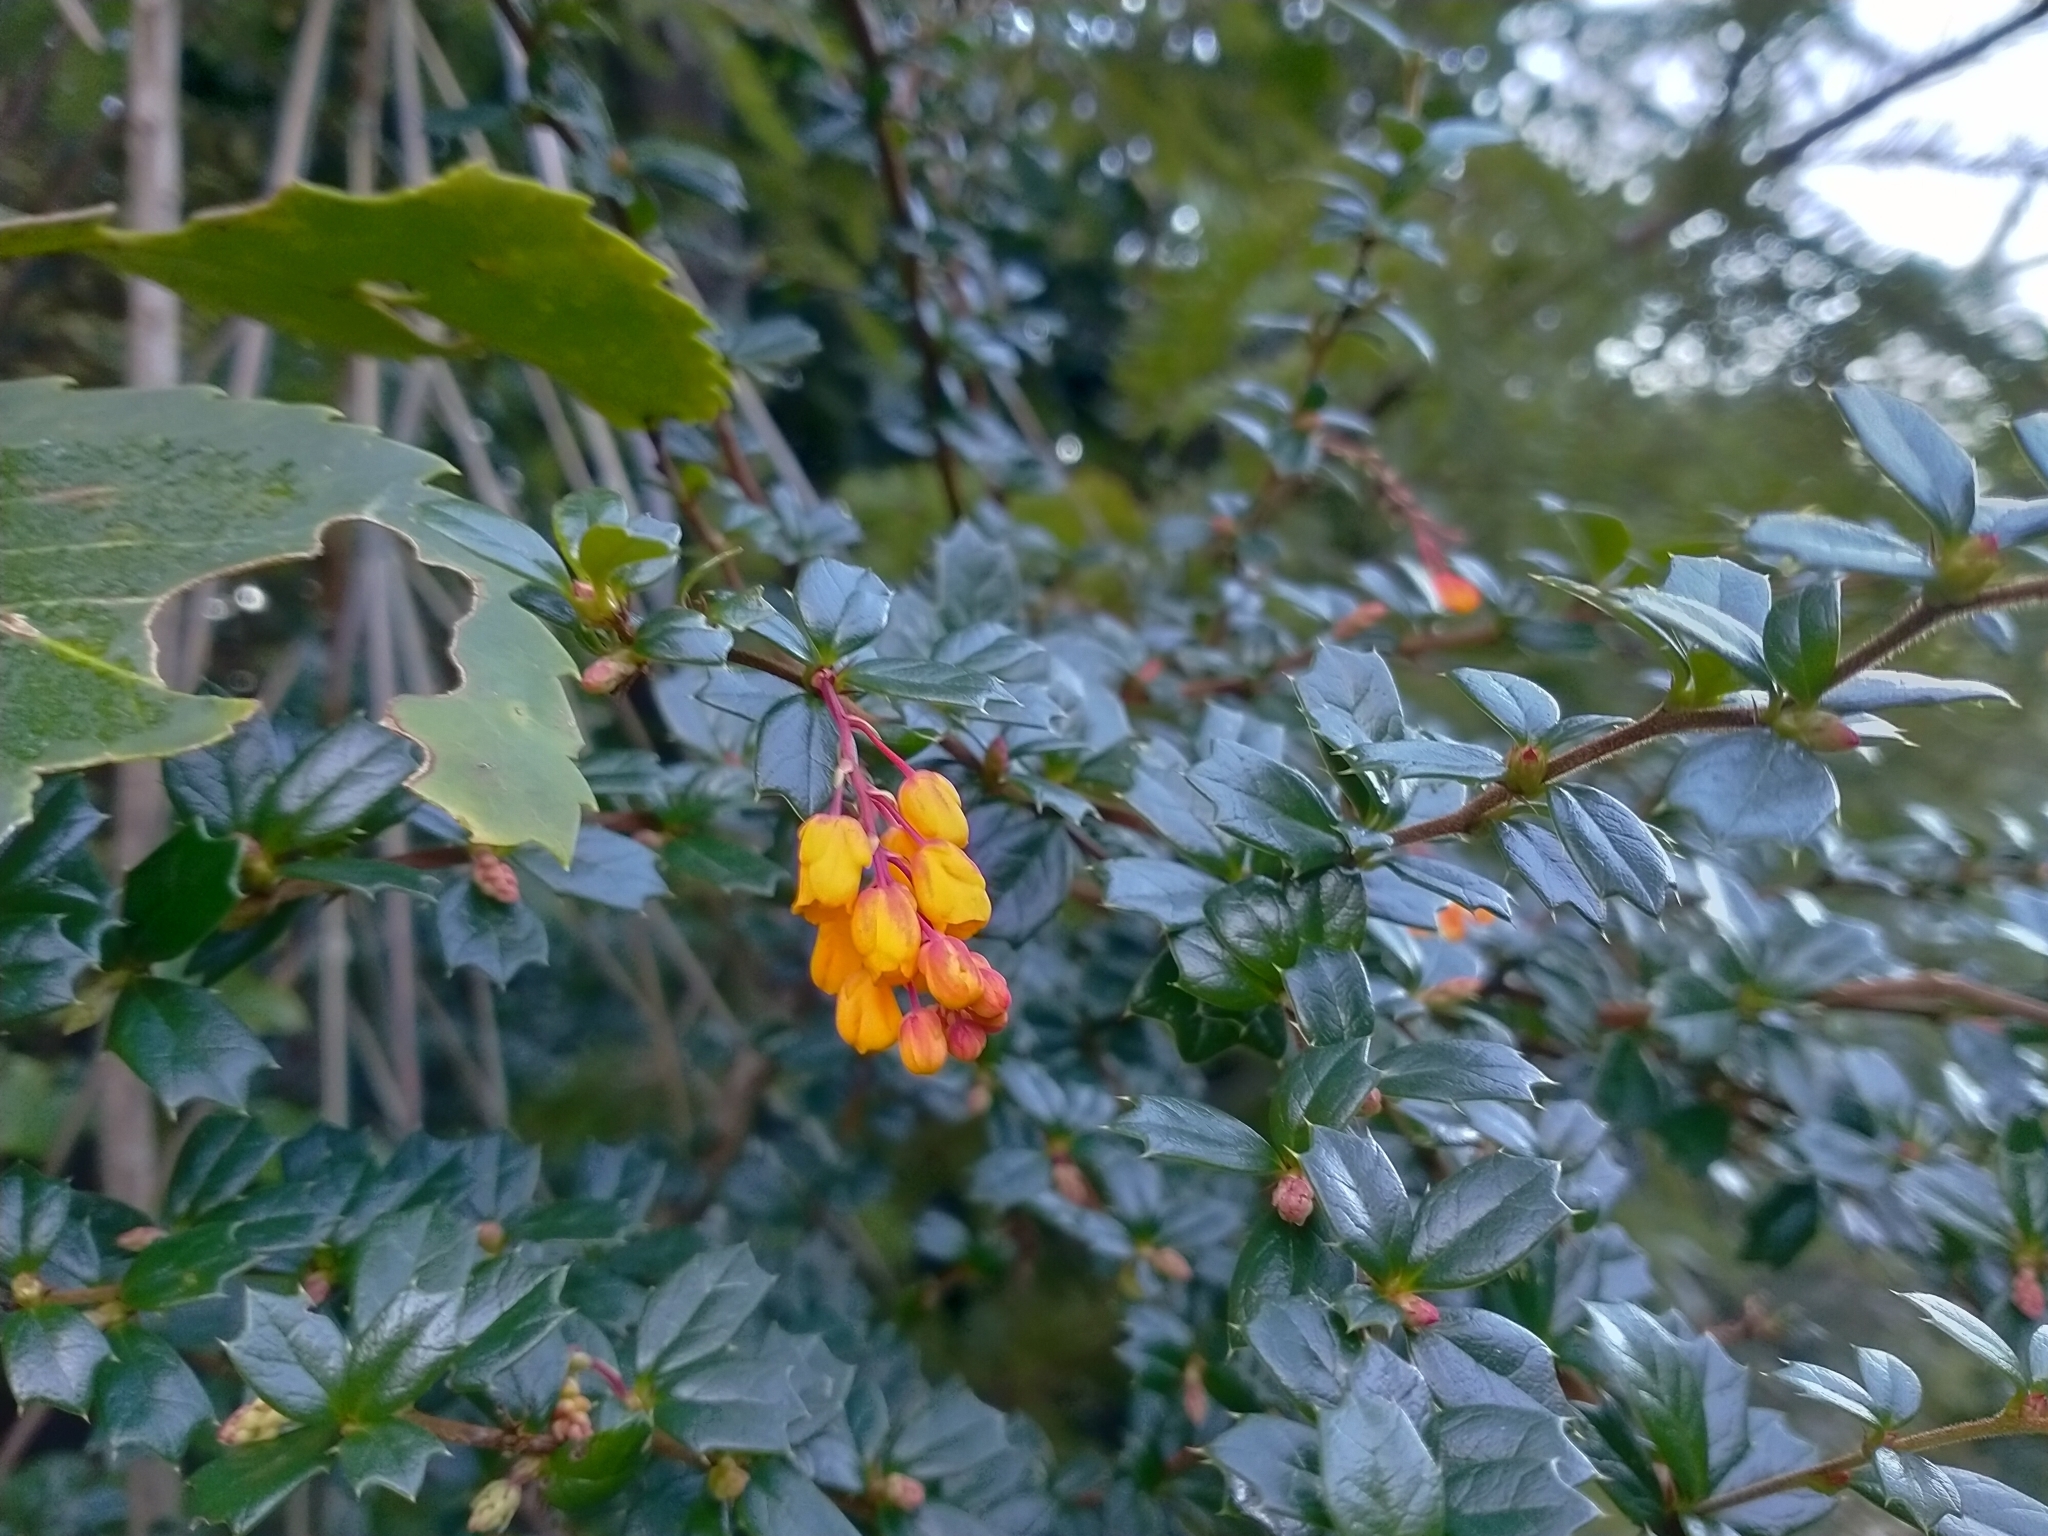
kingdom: Plantae
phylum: Tracheophyta
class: Magnoliopsida
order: Ranunculales
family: Berberidaceae
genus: Berberis
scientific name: Berberis darwinii
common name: Darwin's barberry
